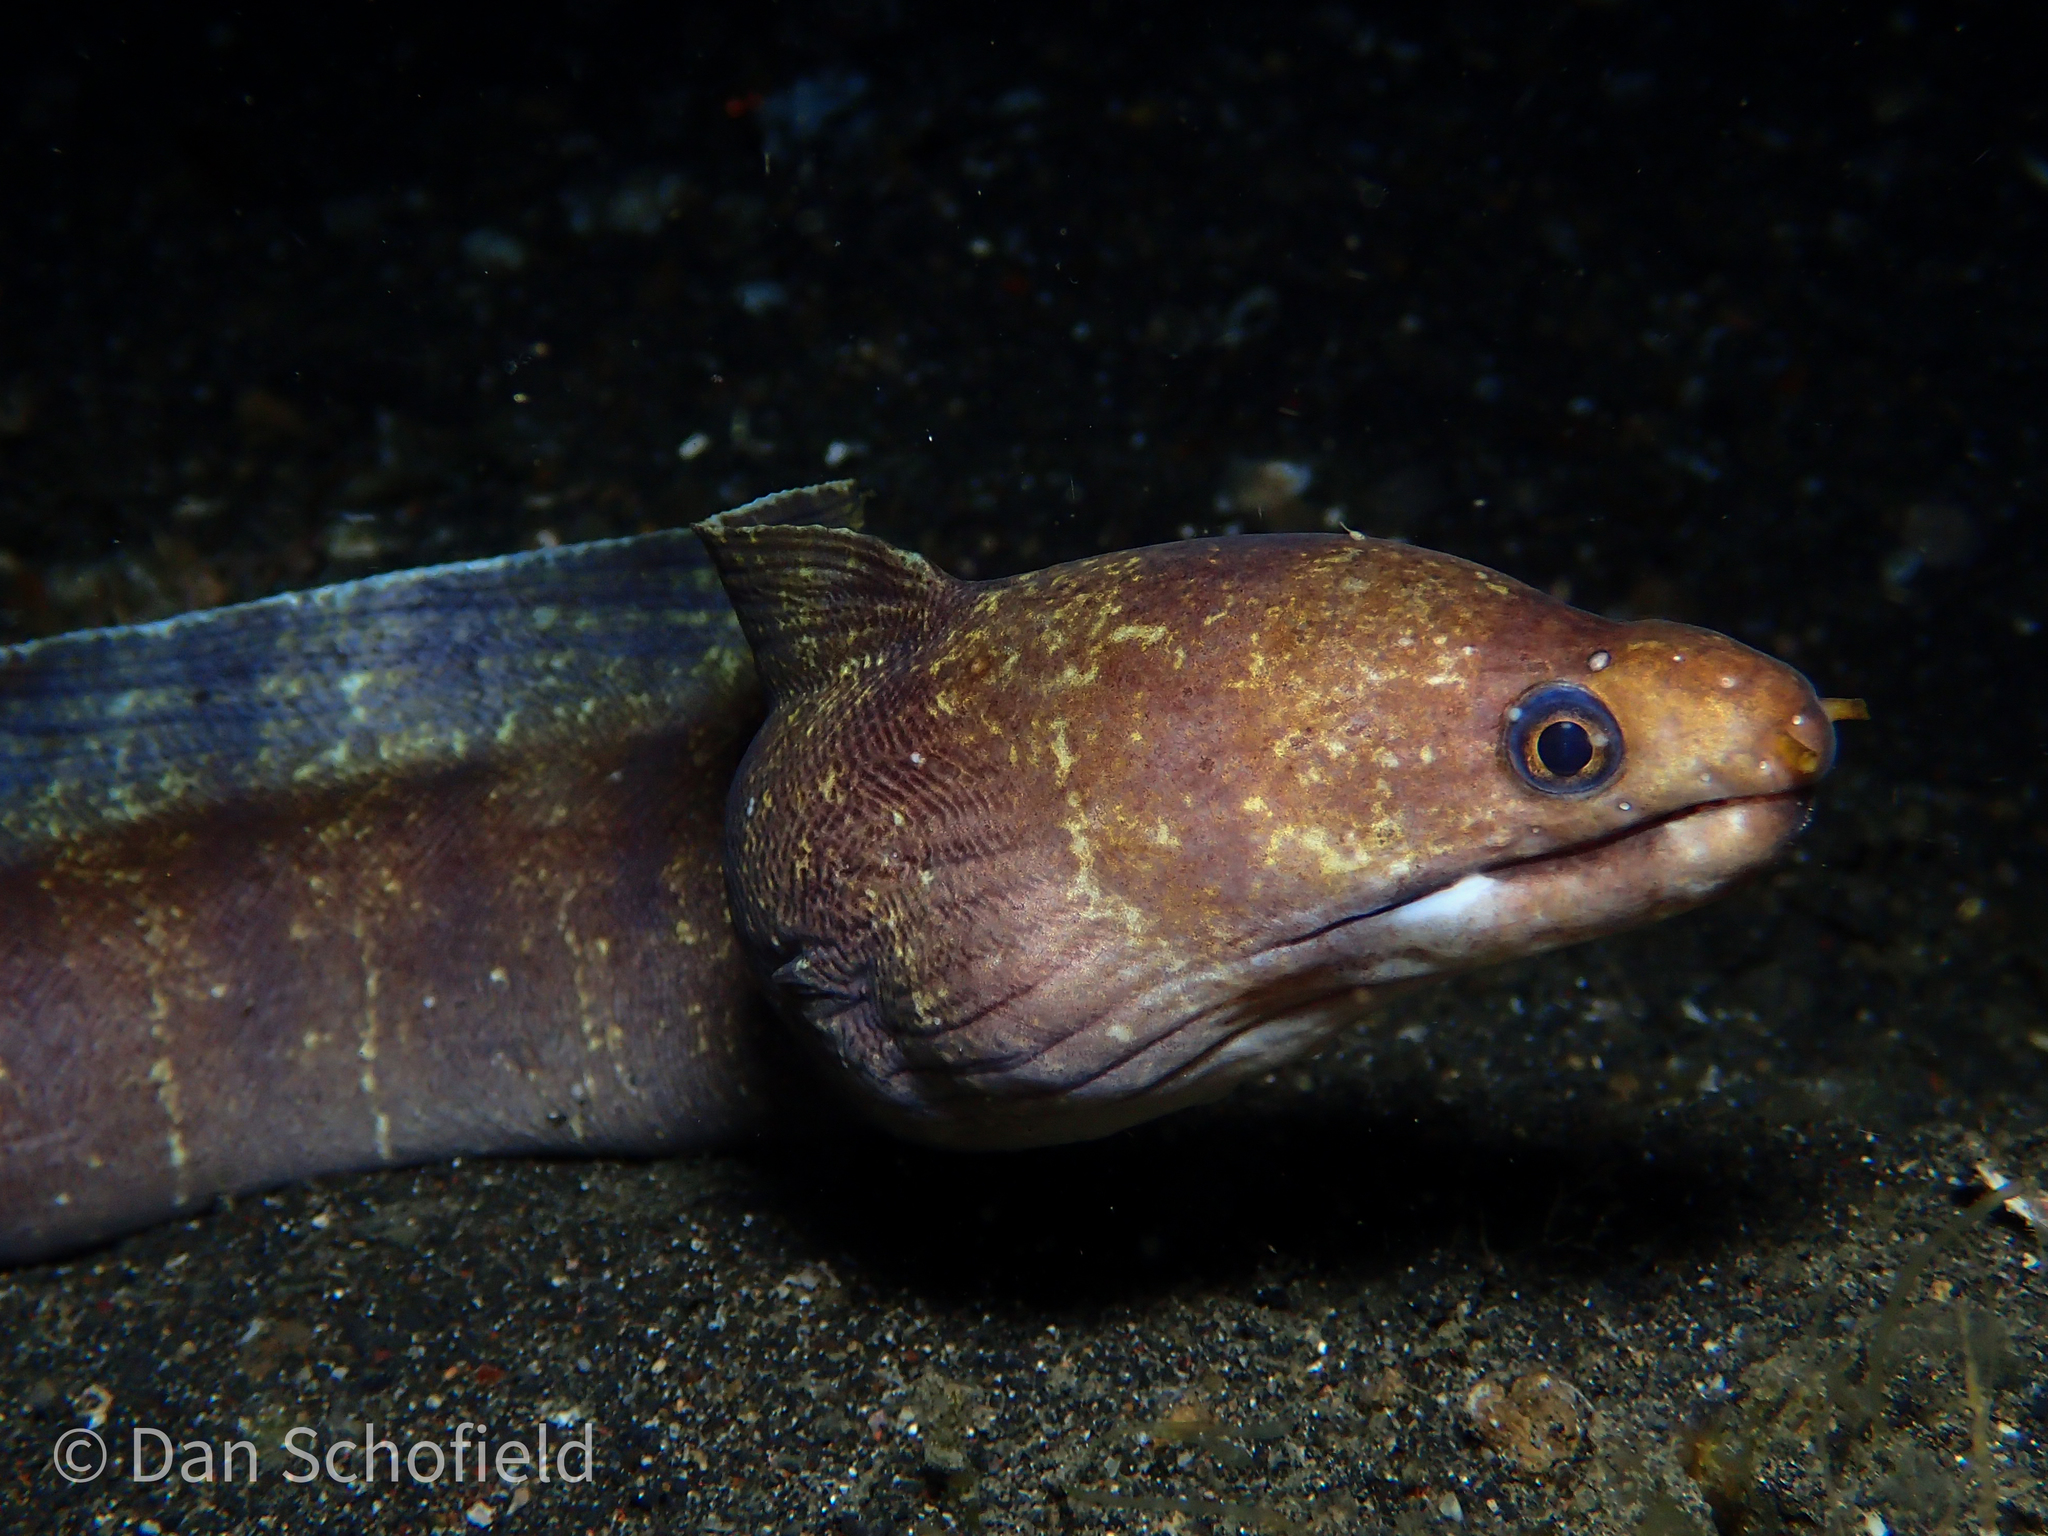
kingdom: Animalia
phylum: Chordata
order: Anguilliformes
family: Muraenidae
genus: Echidna
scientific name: Echidna polyzona
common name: Barred moray
